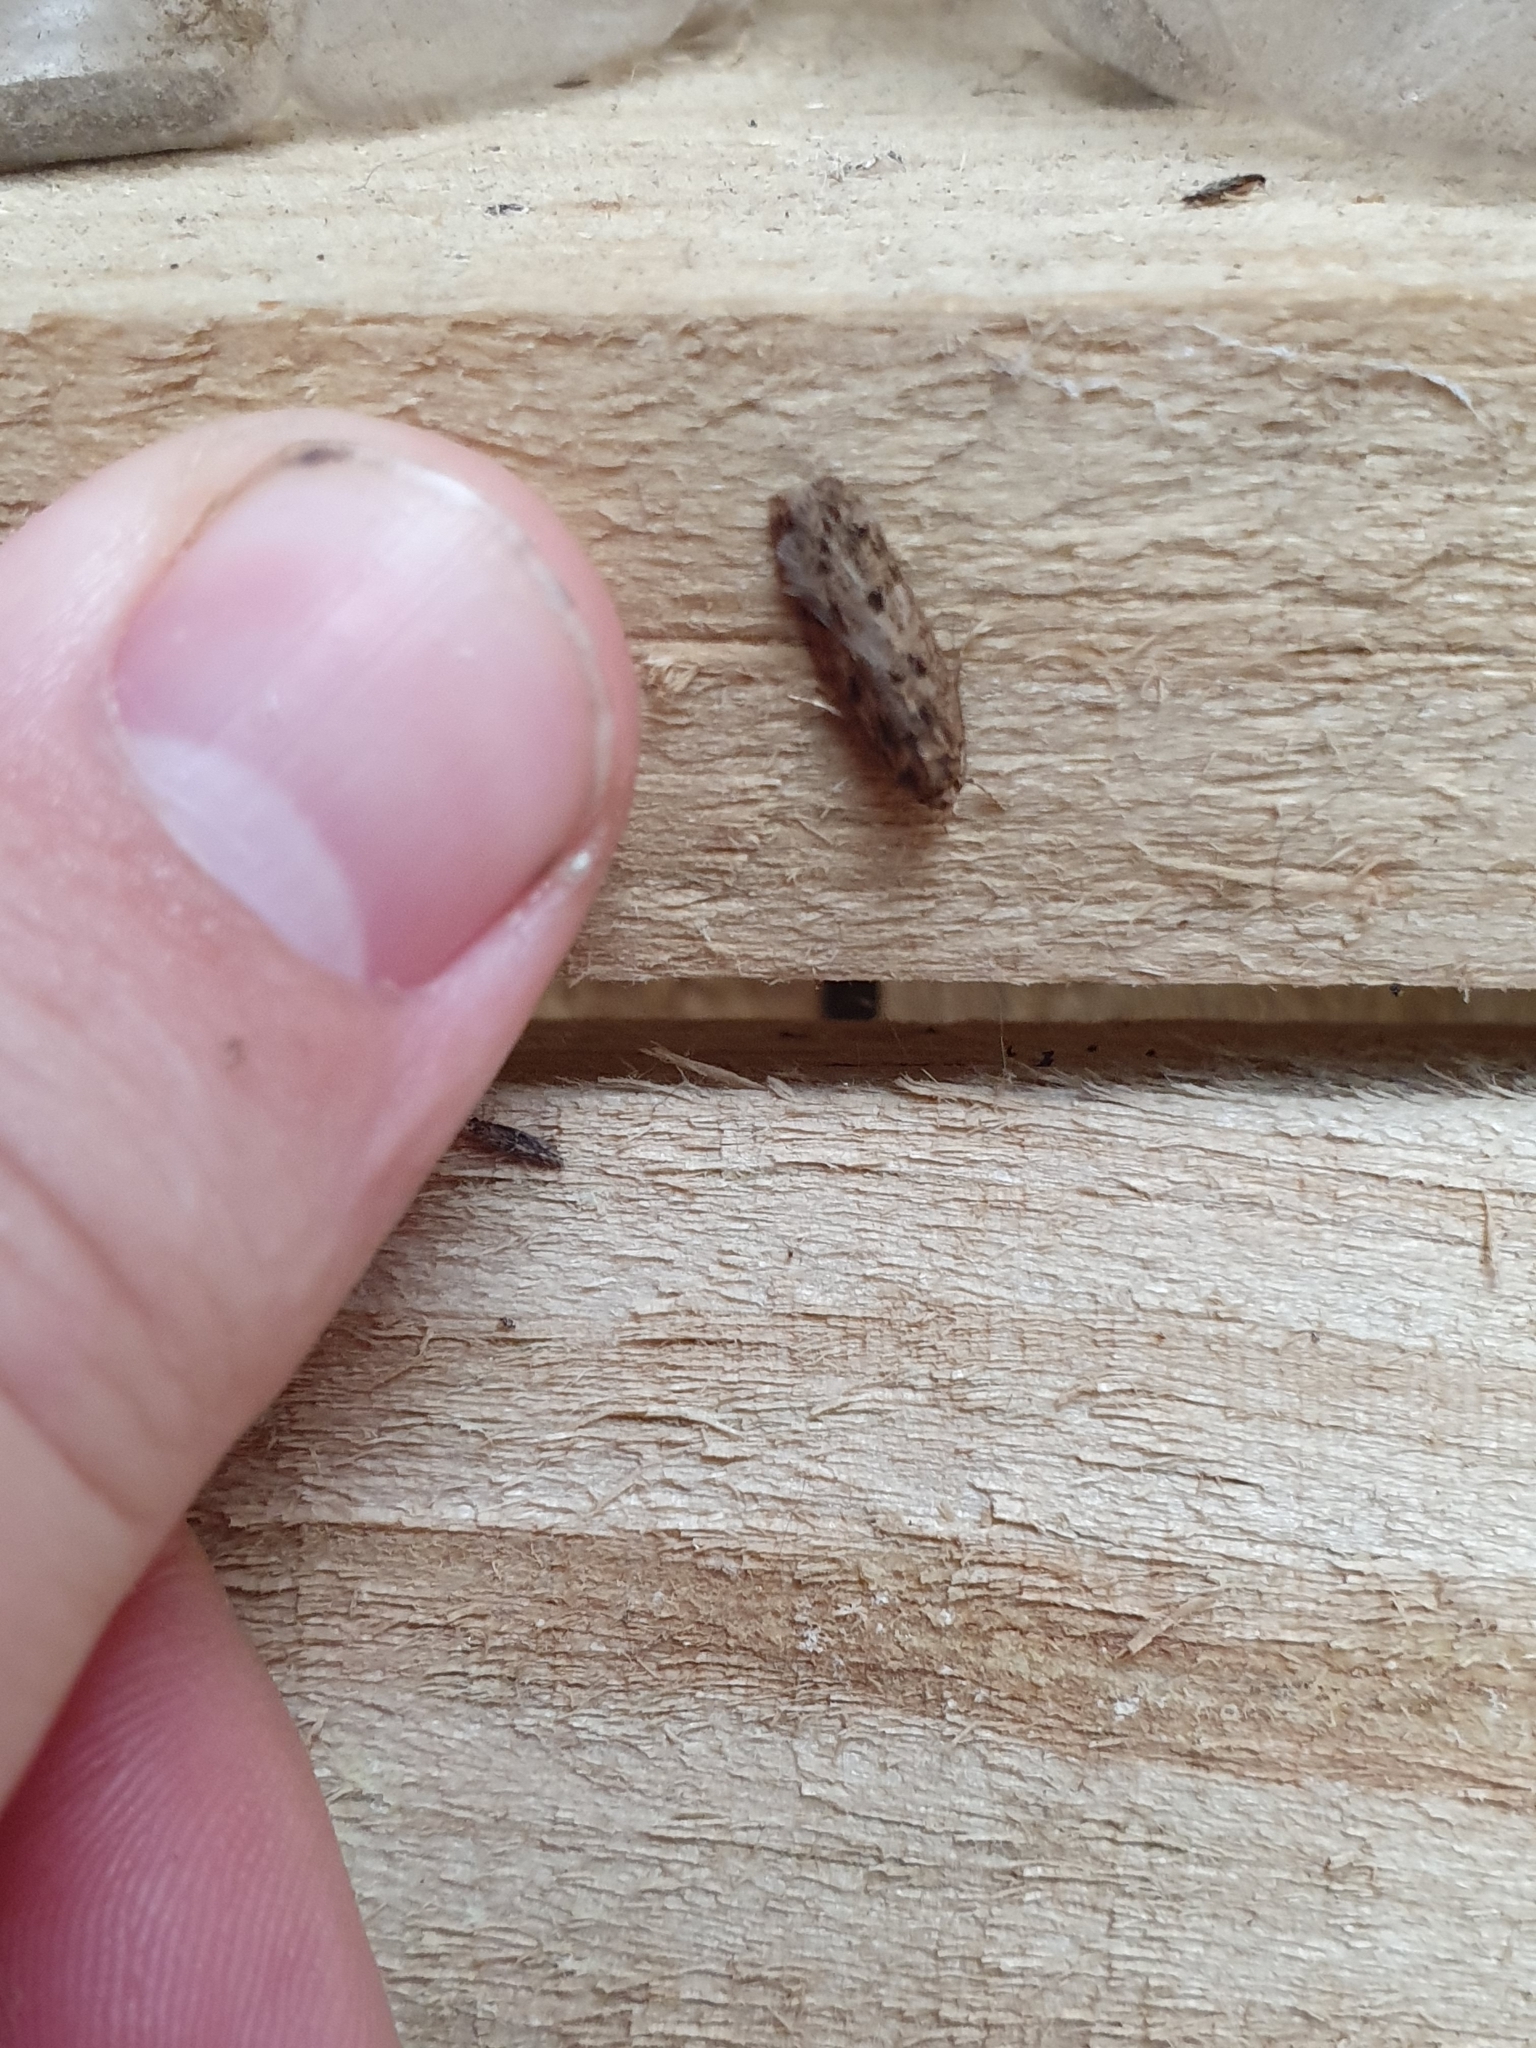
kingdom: Animalia
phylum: Arthropoda
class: Insecta
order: Lepidoptera
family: Oecophoridae
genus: Hofmannophila
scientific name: Hofmannophila pseudospretella
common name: Brown house moth
